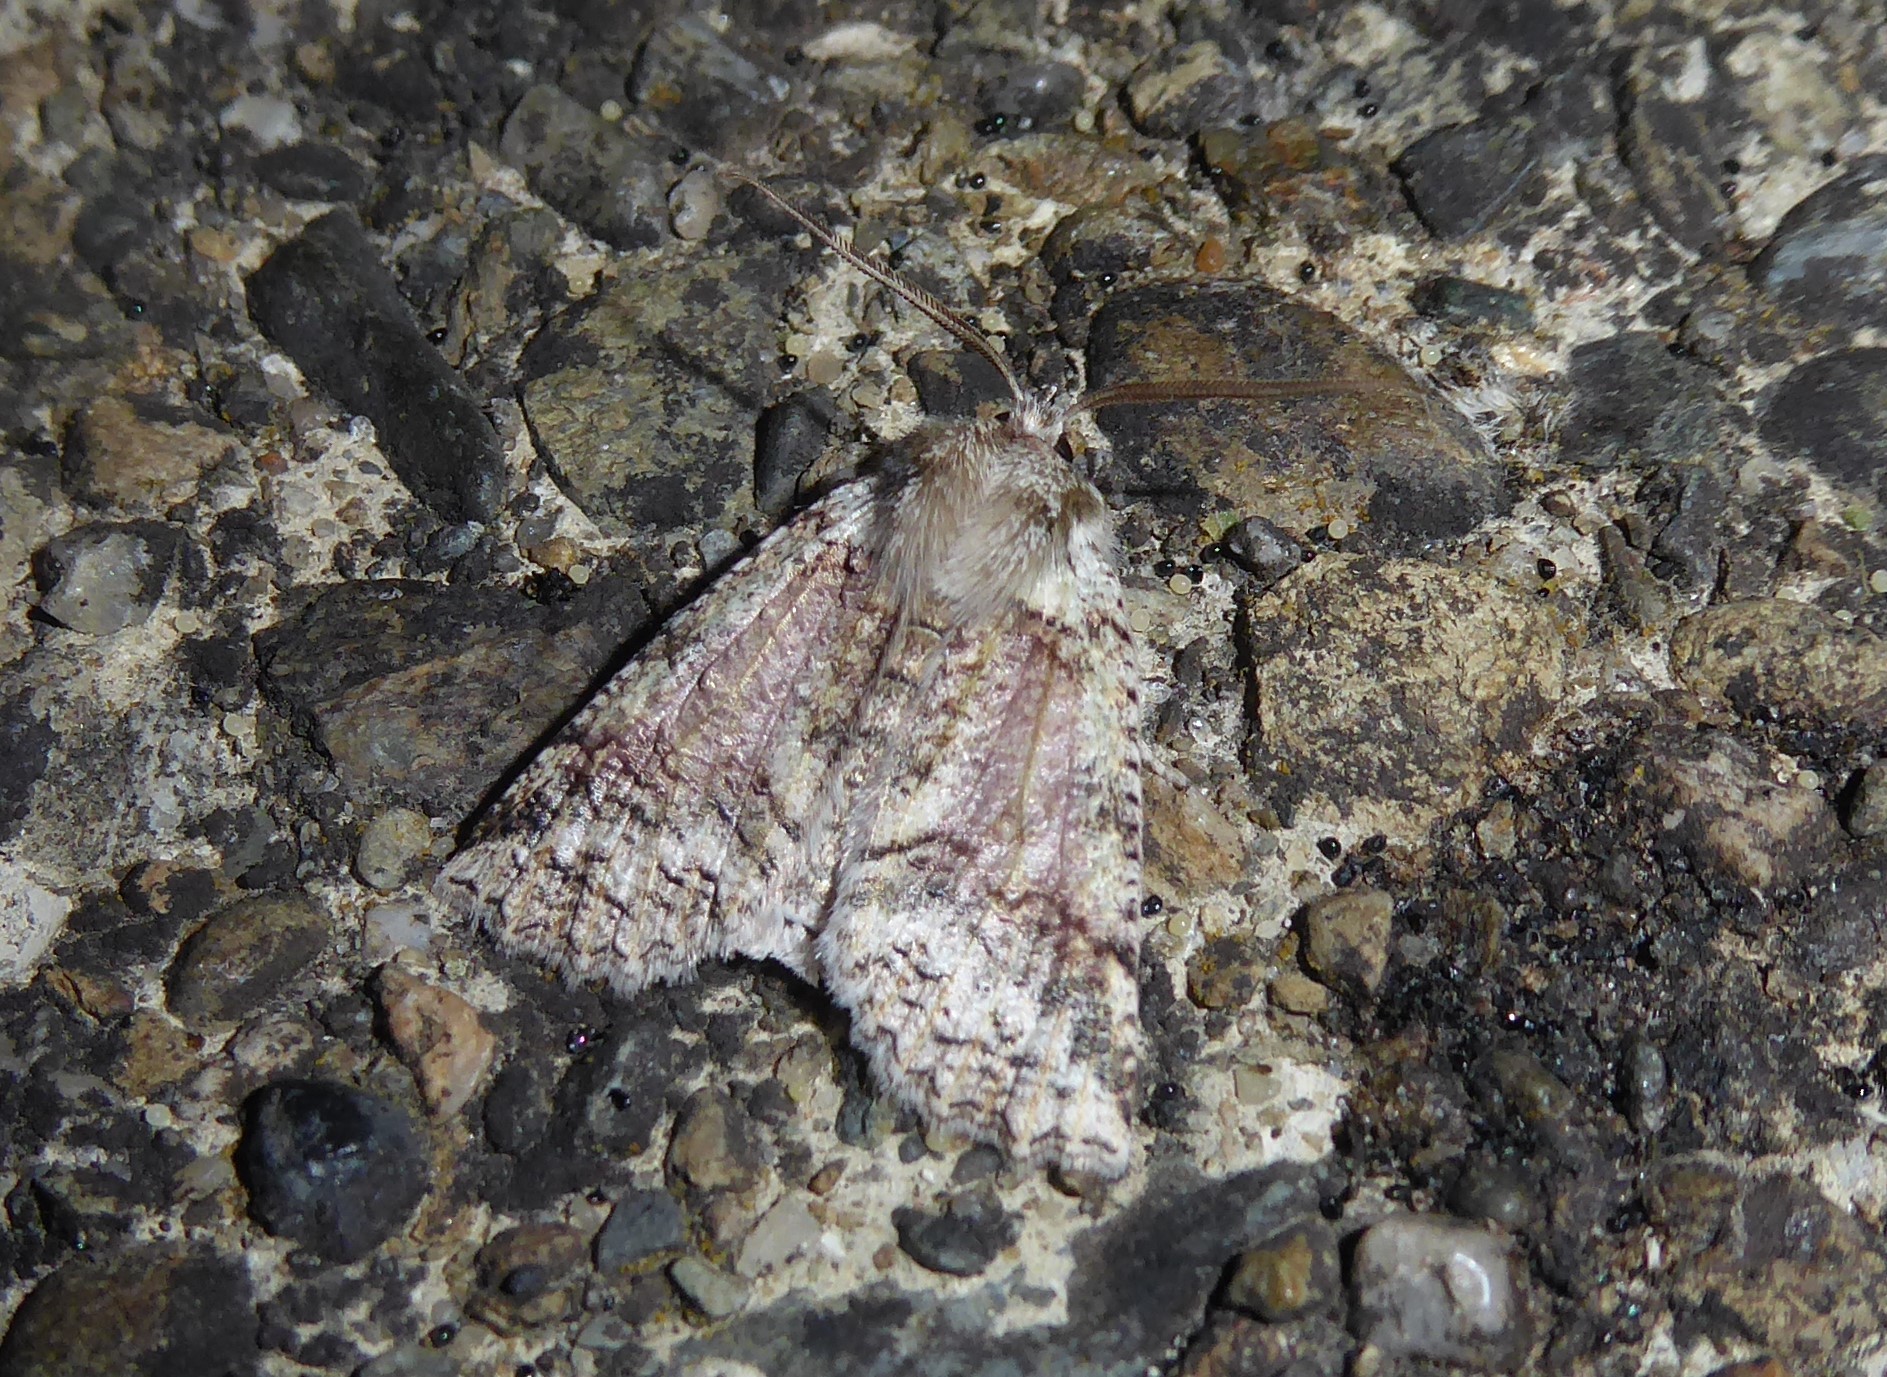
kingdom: Animalia
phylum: Arthropoda
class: Insecta
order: Lepidoptera
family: Geometridae
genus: Declana
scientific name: Declana floccosa
